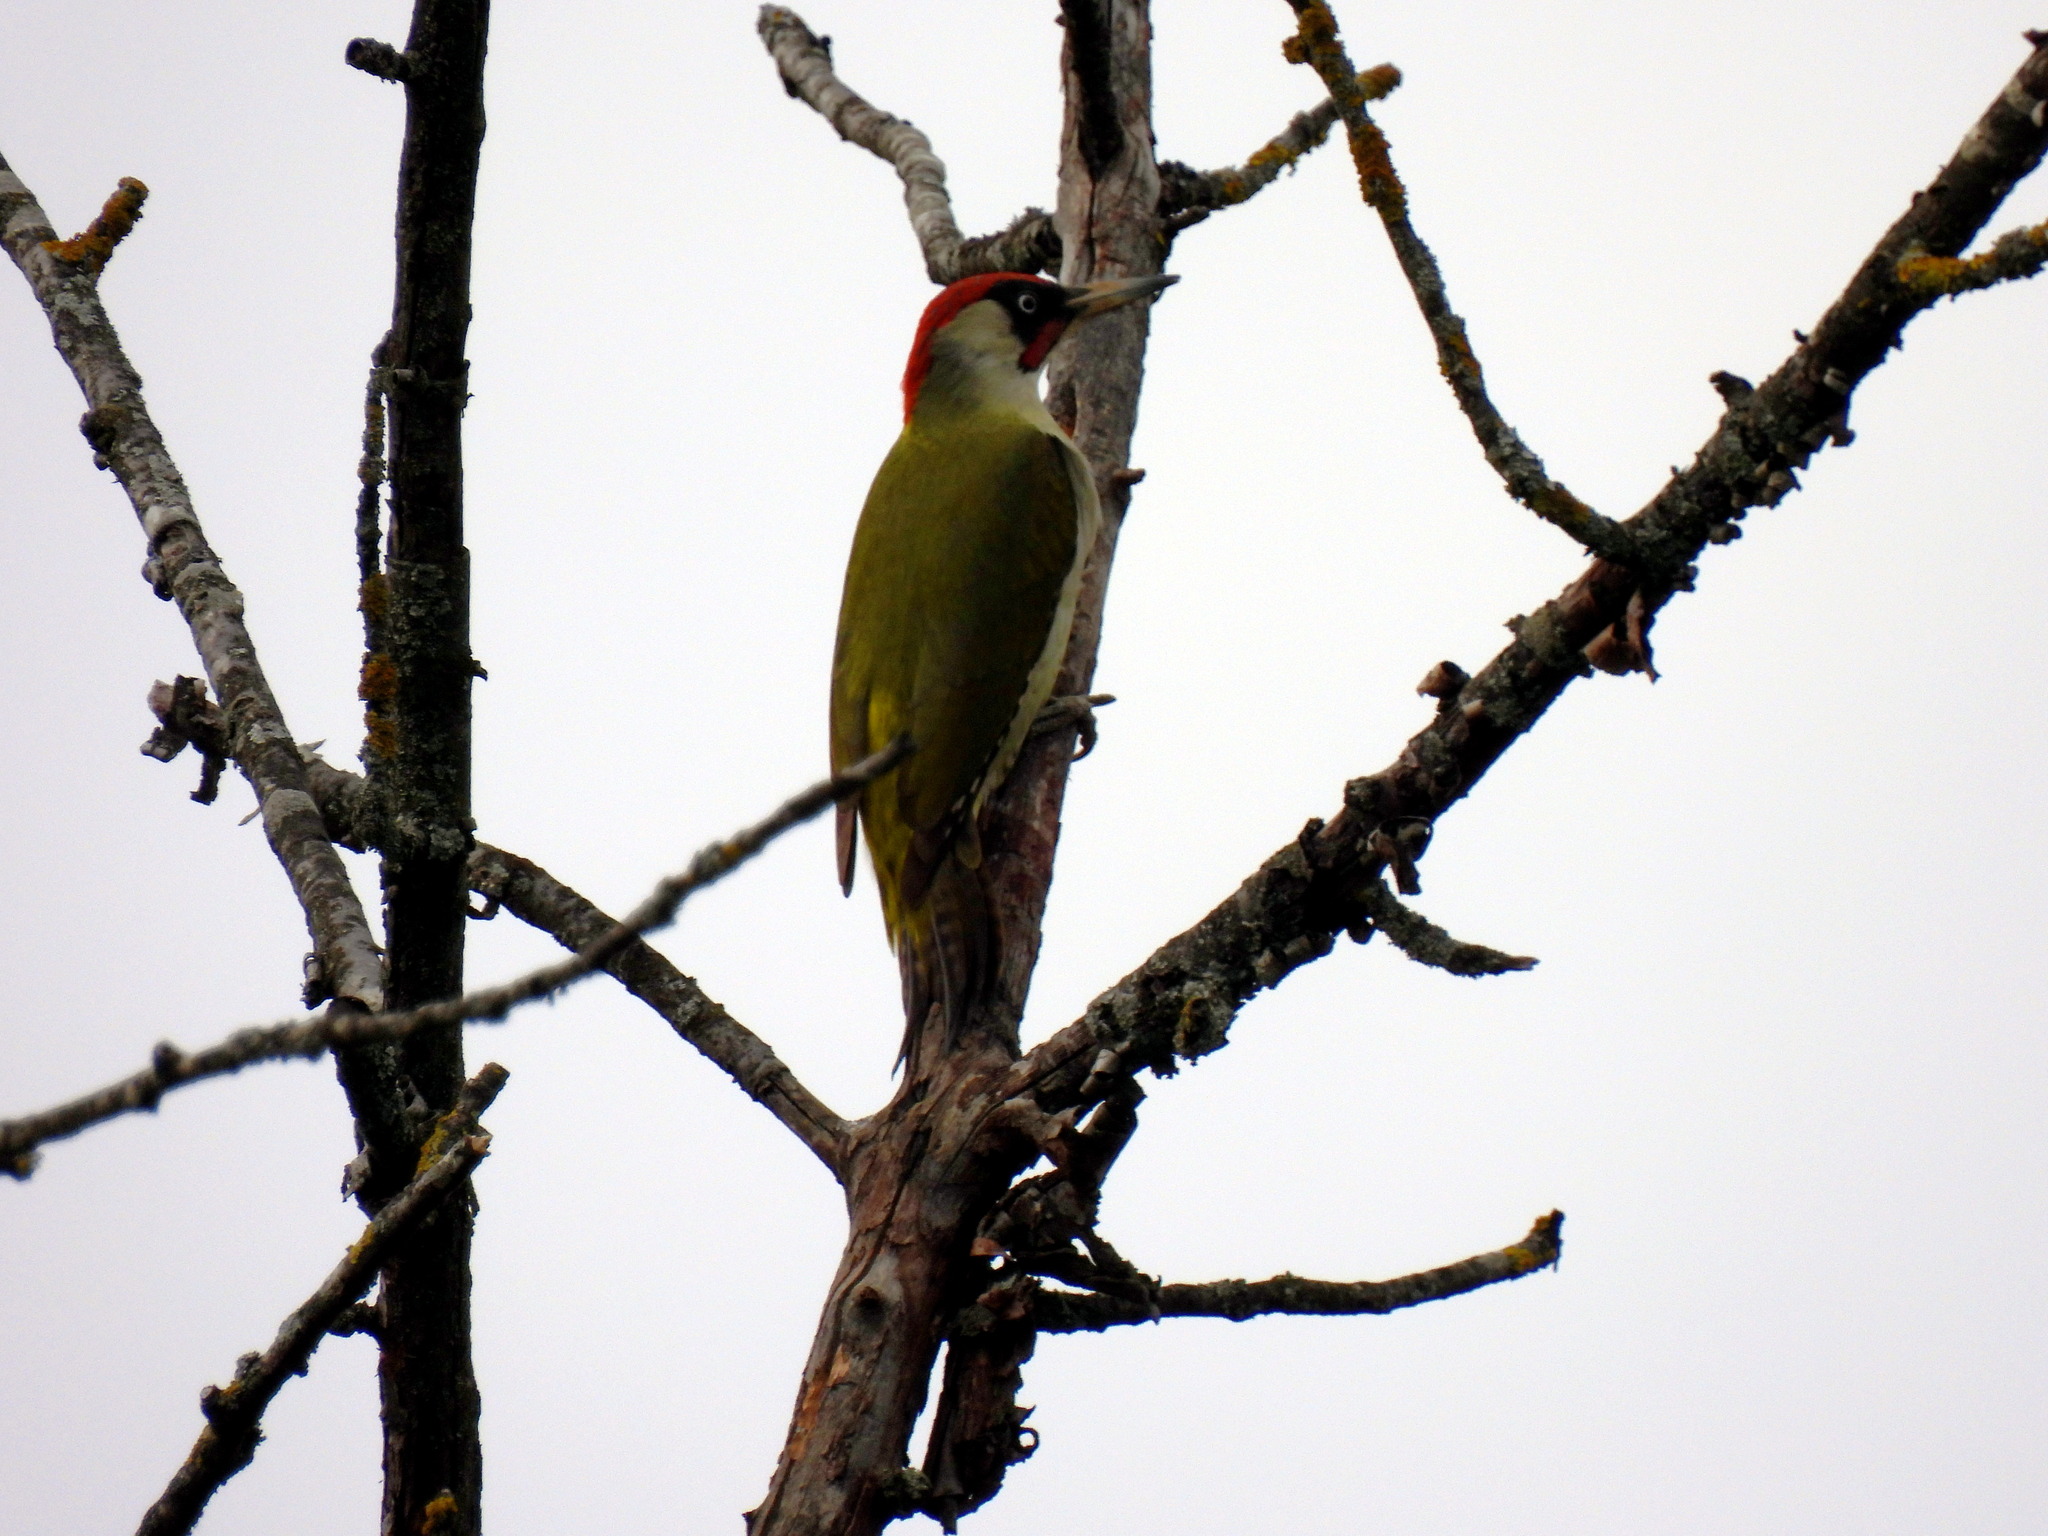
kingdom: Animalia
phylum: Chordata
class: Aves
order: Piciformes
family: Picidae
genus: Picus
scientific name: Picus viridis
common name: European green woodpecker
